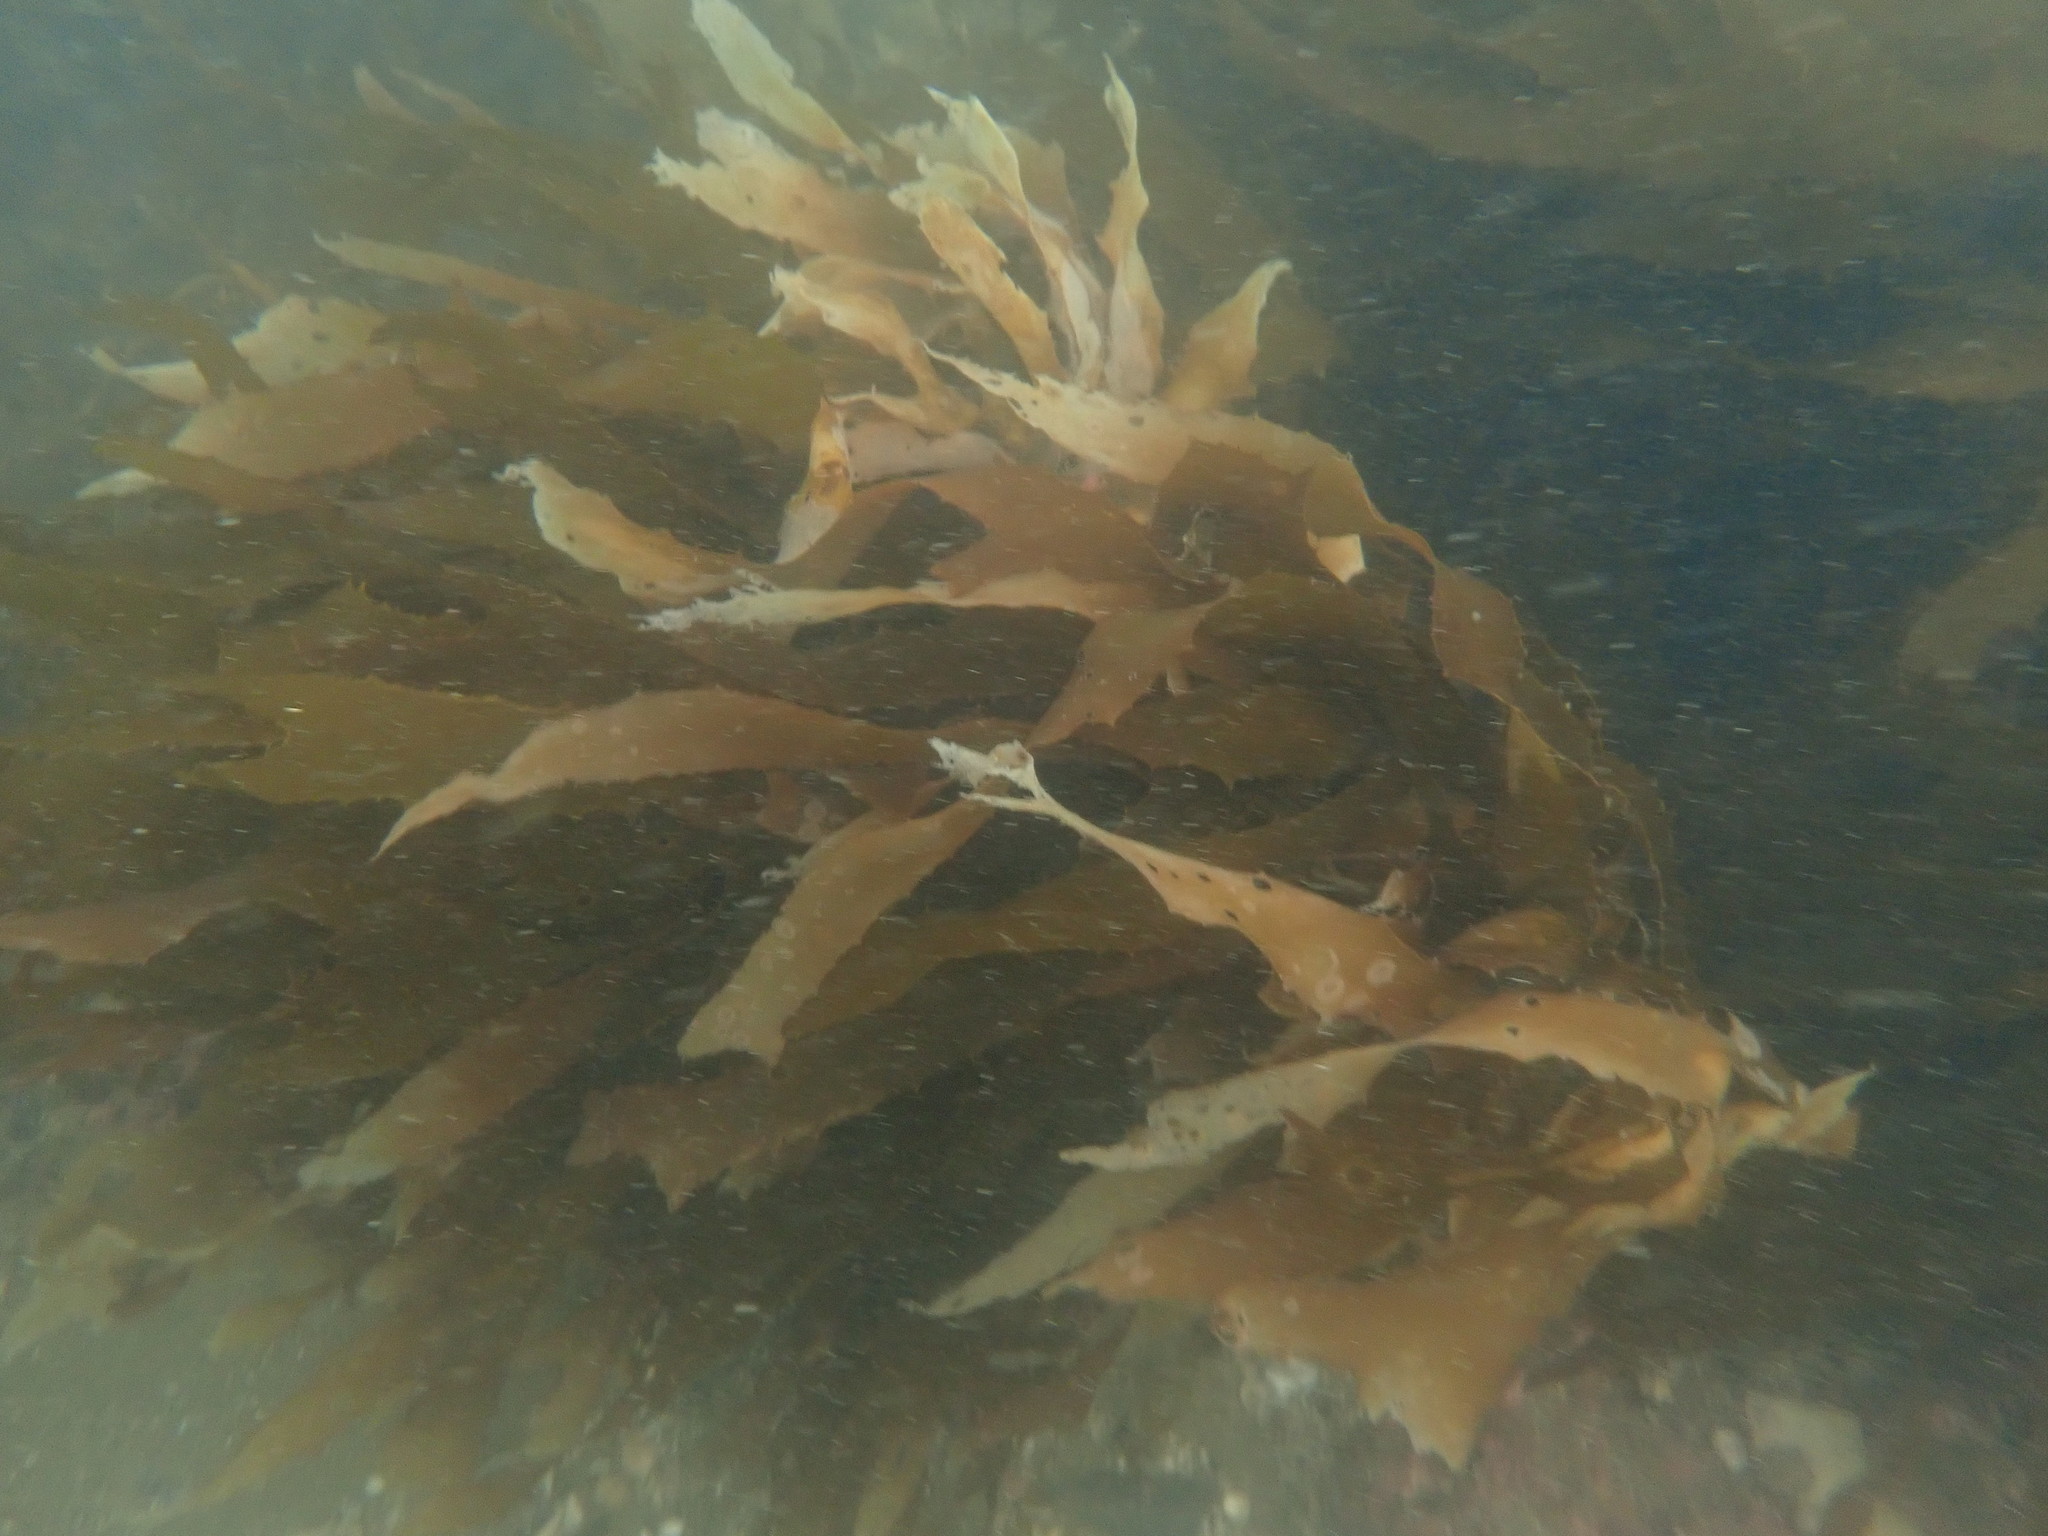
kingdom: Chromista
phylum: Ochrophyta
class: Phaeophyceae
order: Laminariales
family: Lessoniaceae
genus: Ecklonia
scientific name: Ecklonia radiata
